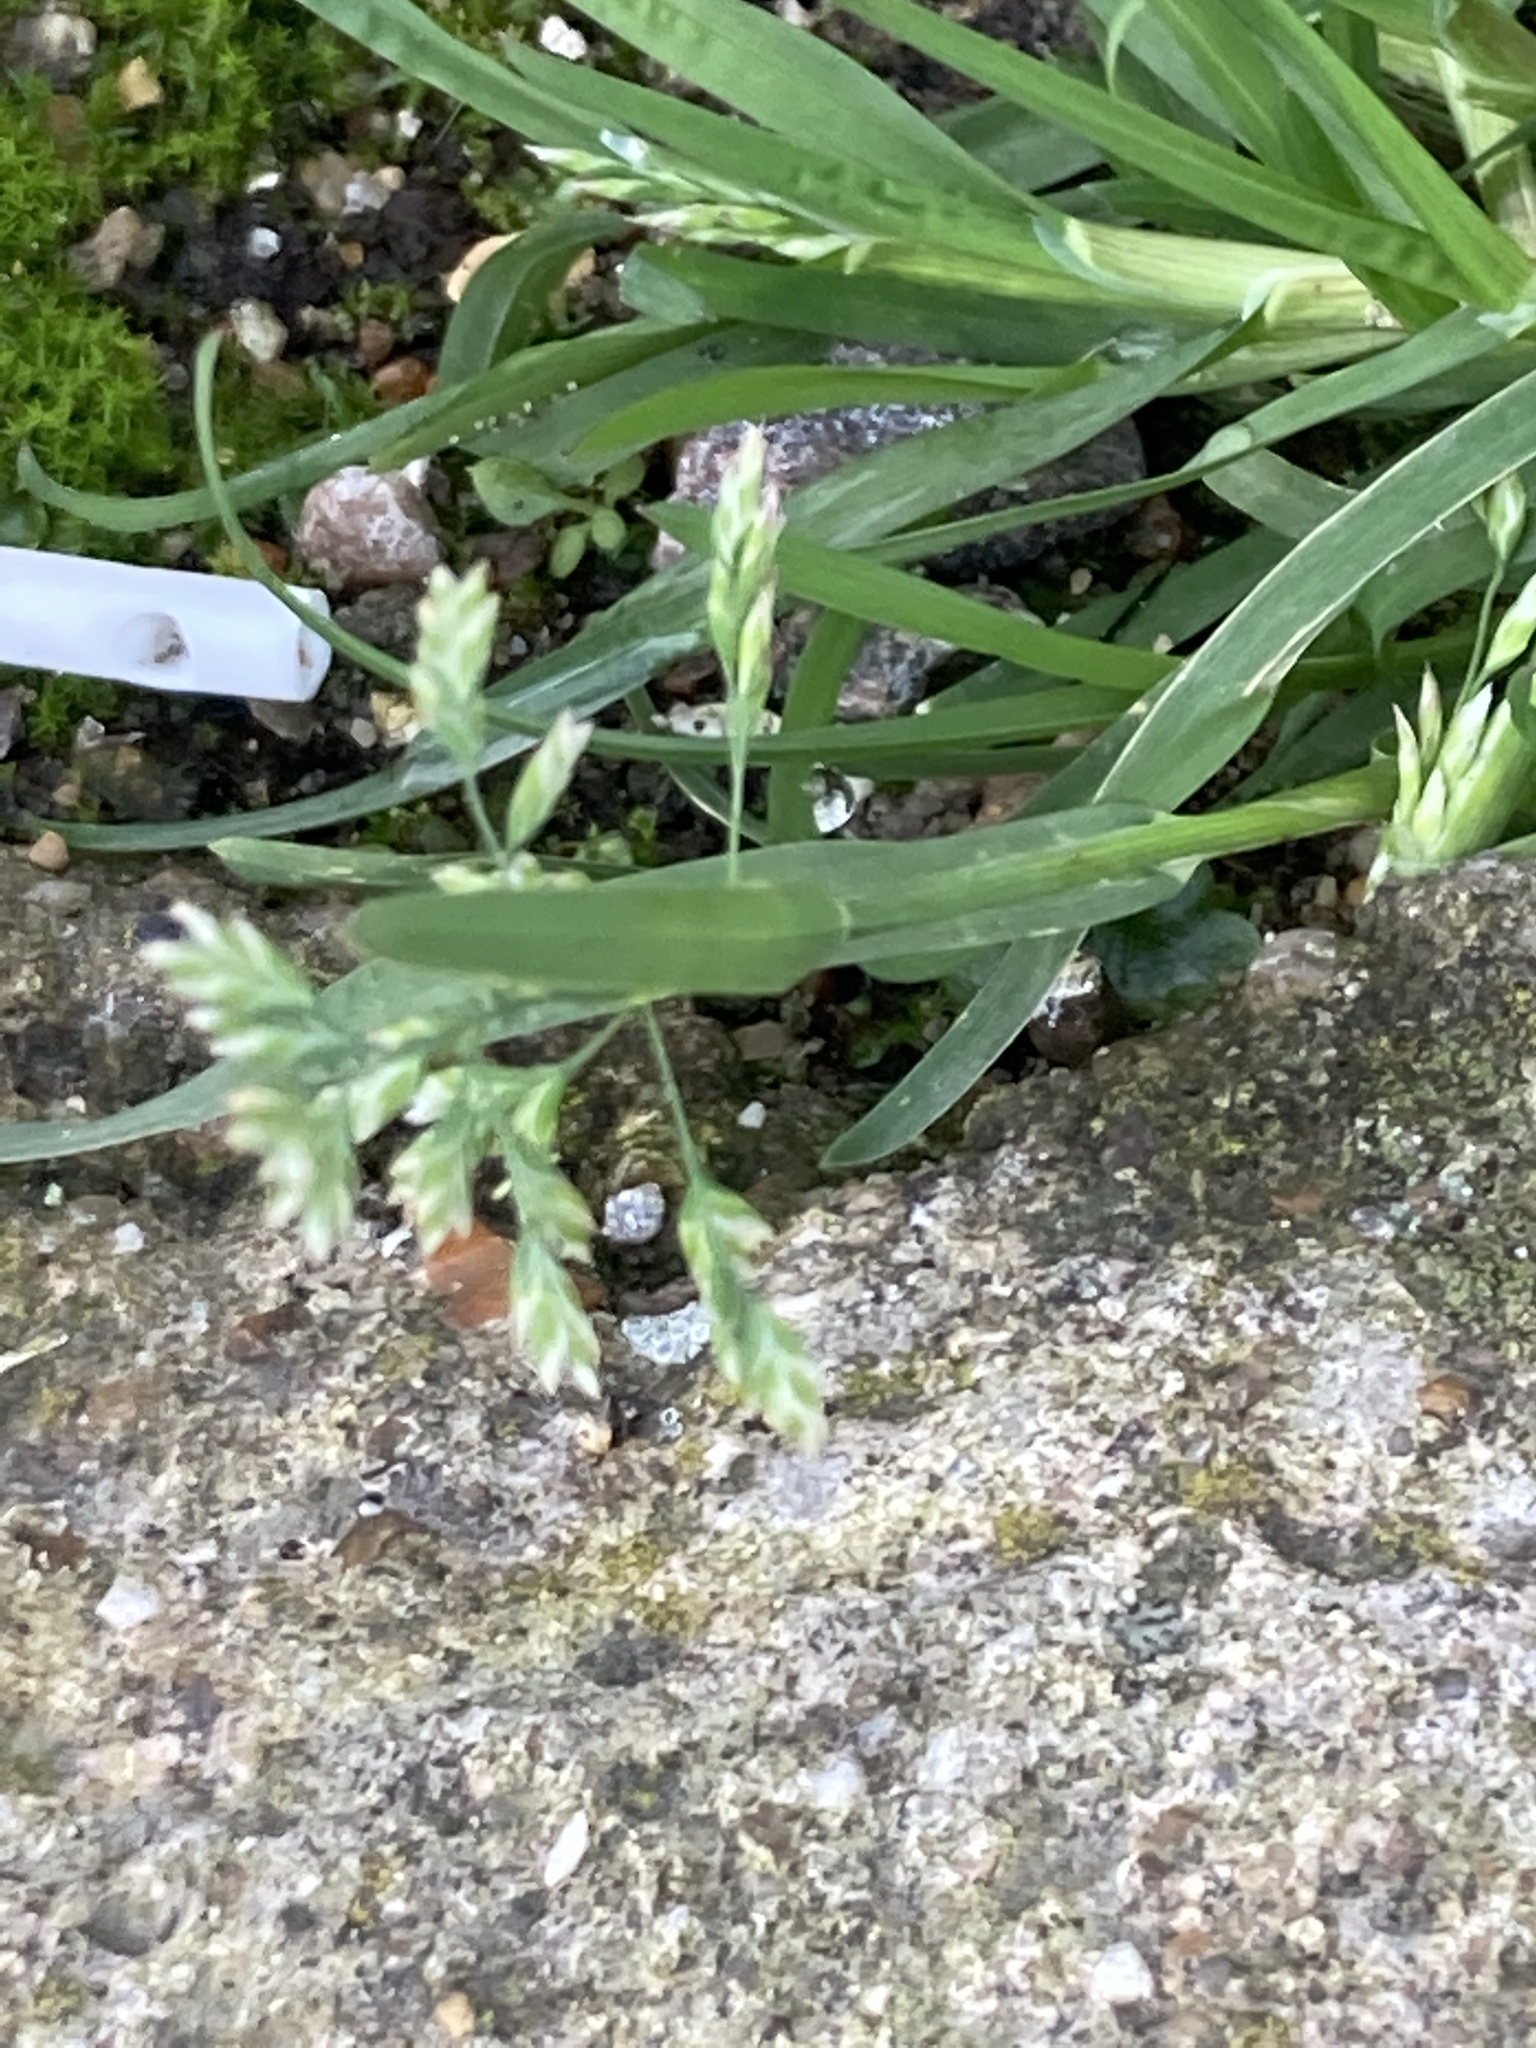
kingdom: Plantae
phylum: Tracheophyta
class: Liliopsida
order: Poales
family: Poaceae
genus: Poa
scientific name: Poa annua
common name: Annual bluegrass
